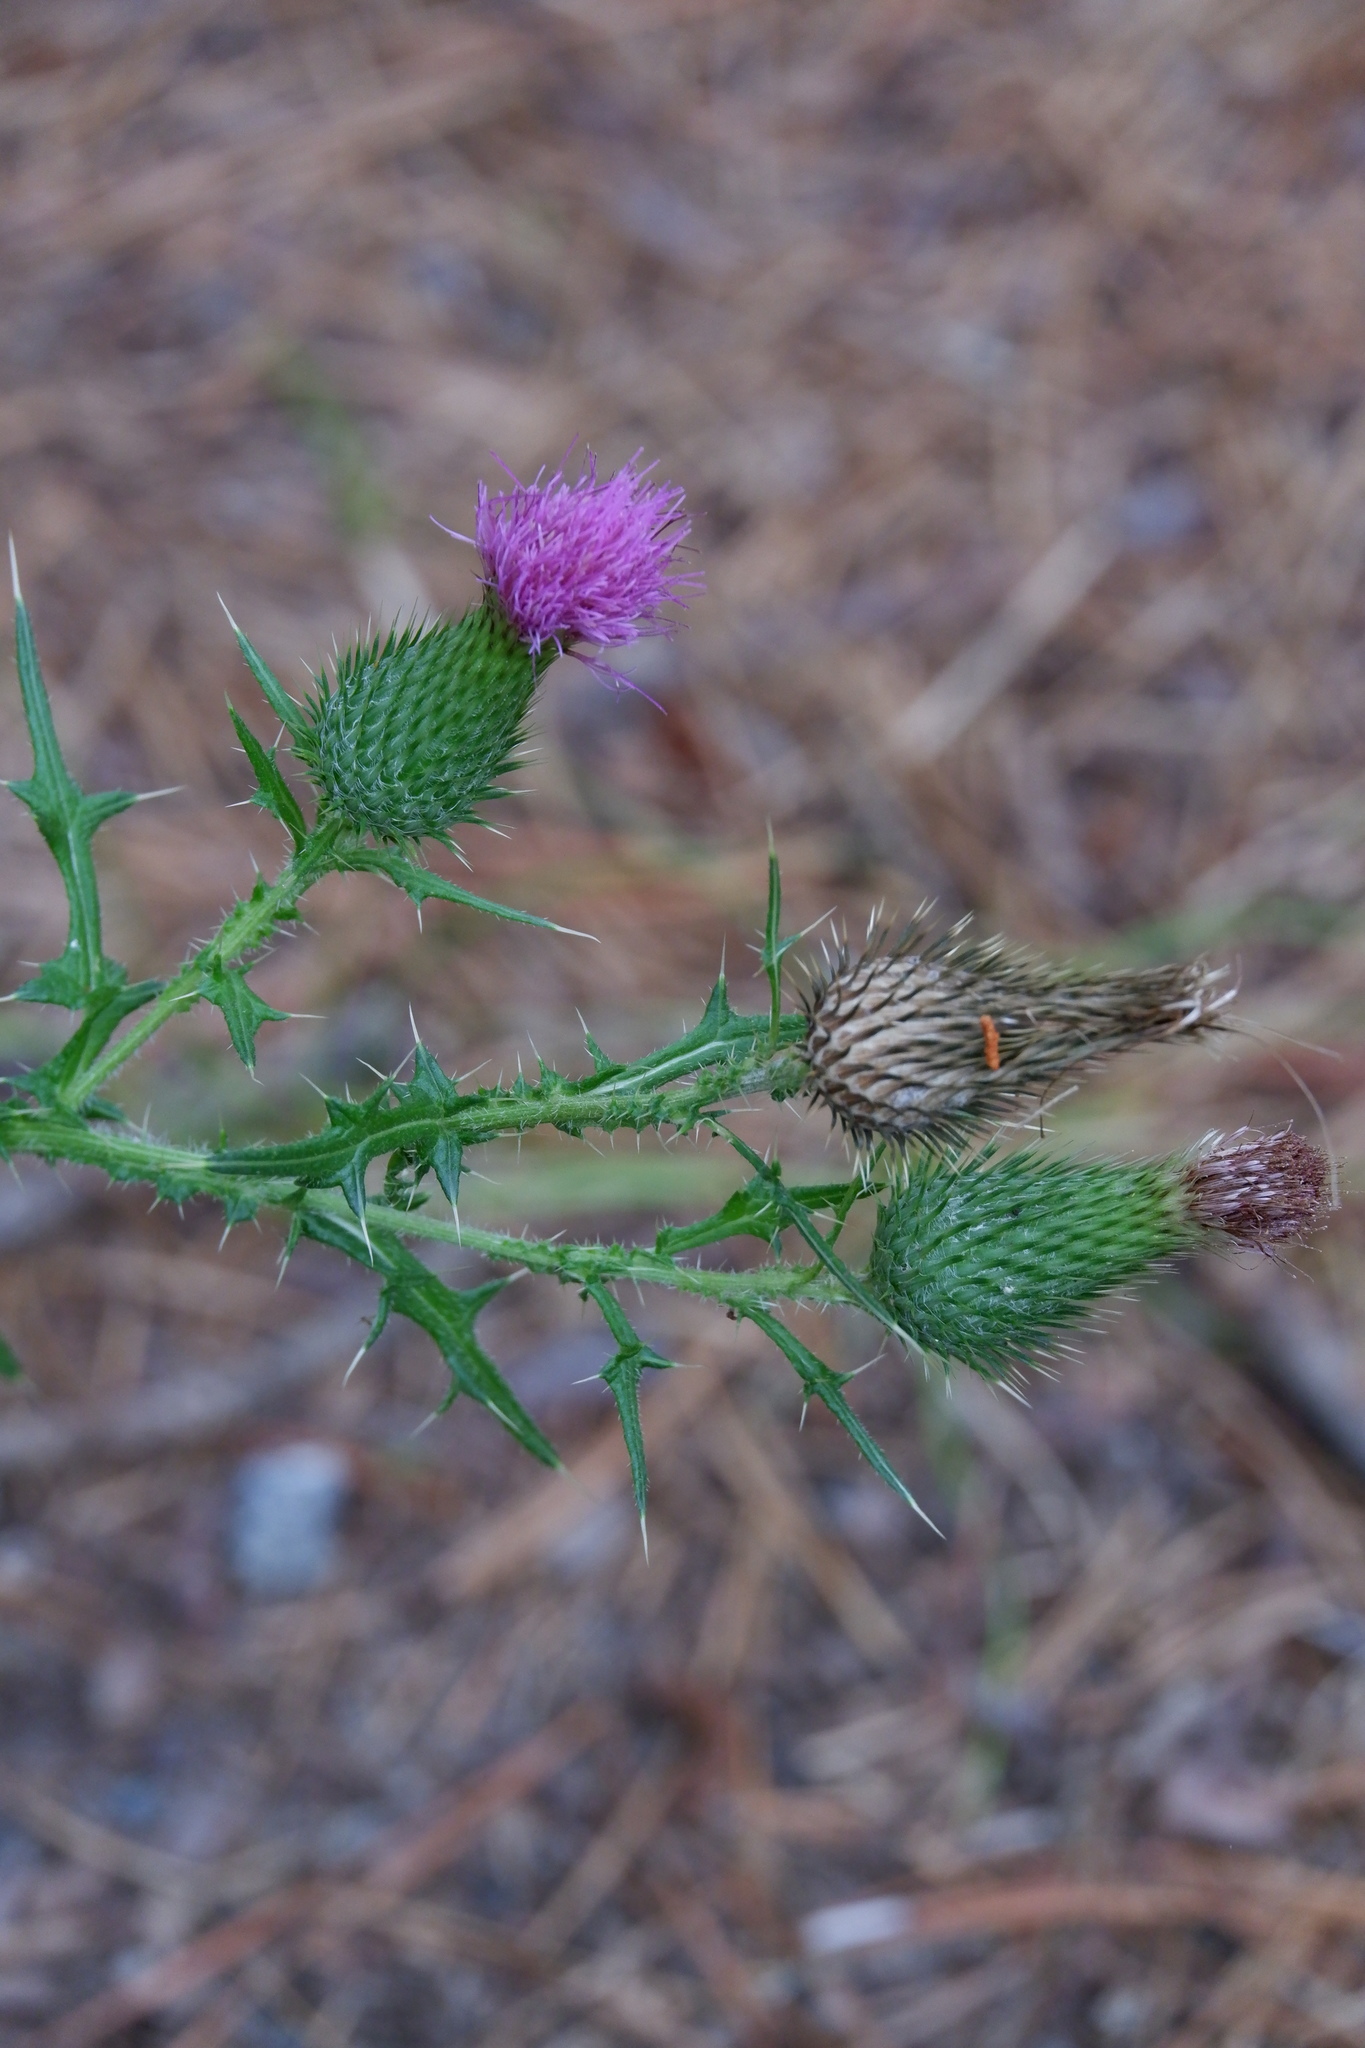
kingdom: Plantae
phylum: Tracheophyta
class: Magnoliopsida
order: Asterales
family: Asteraceae
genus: Cirsium
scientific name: Cirsium vulgare
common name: Bull thistle
